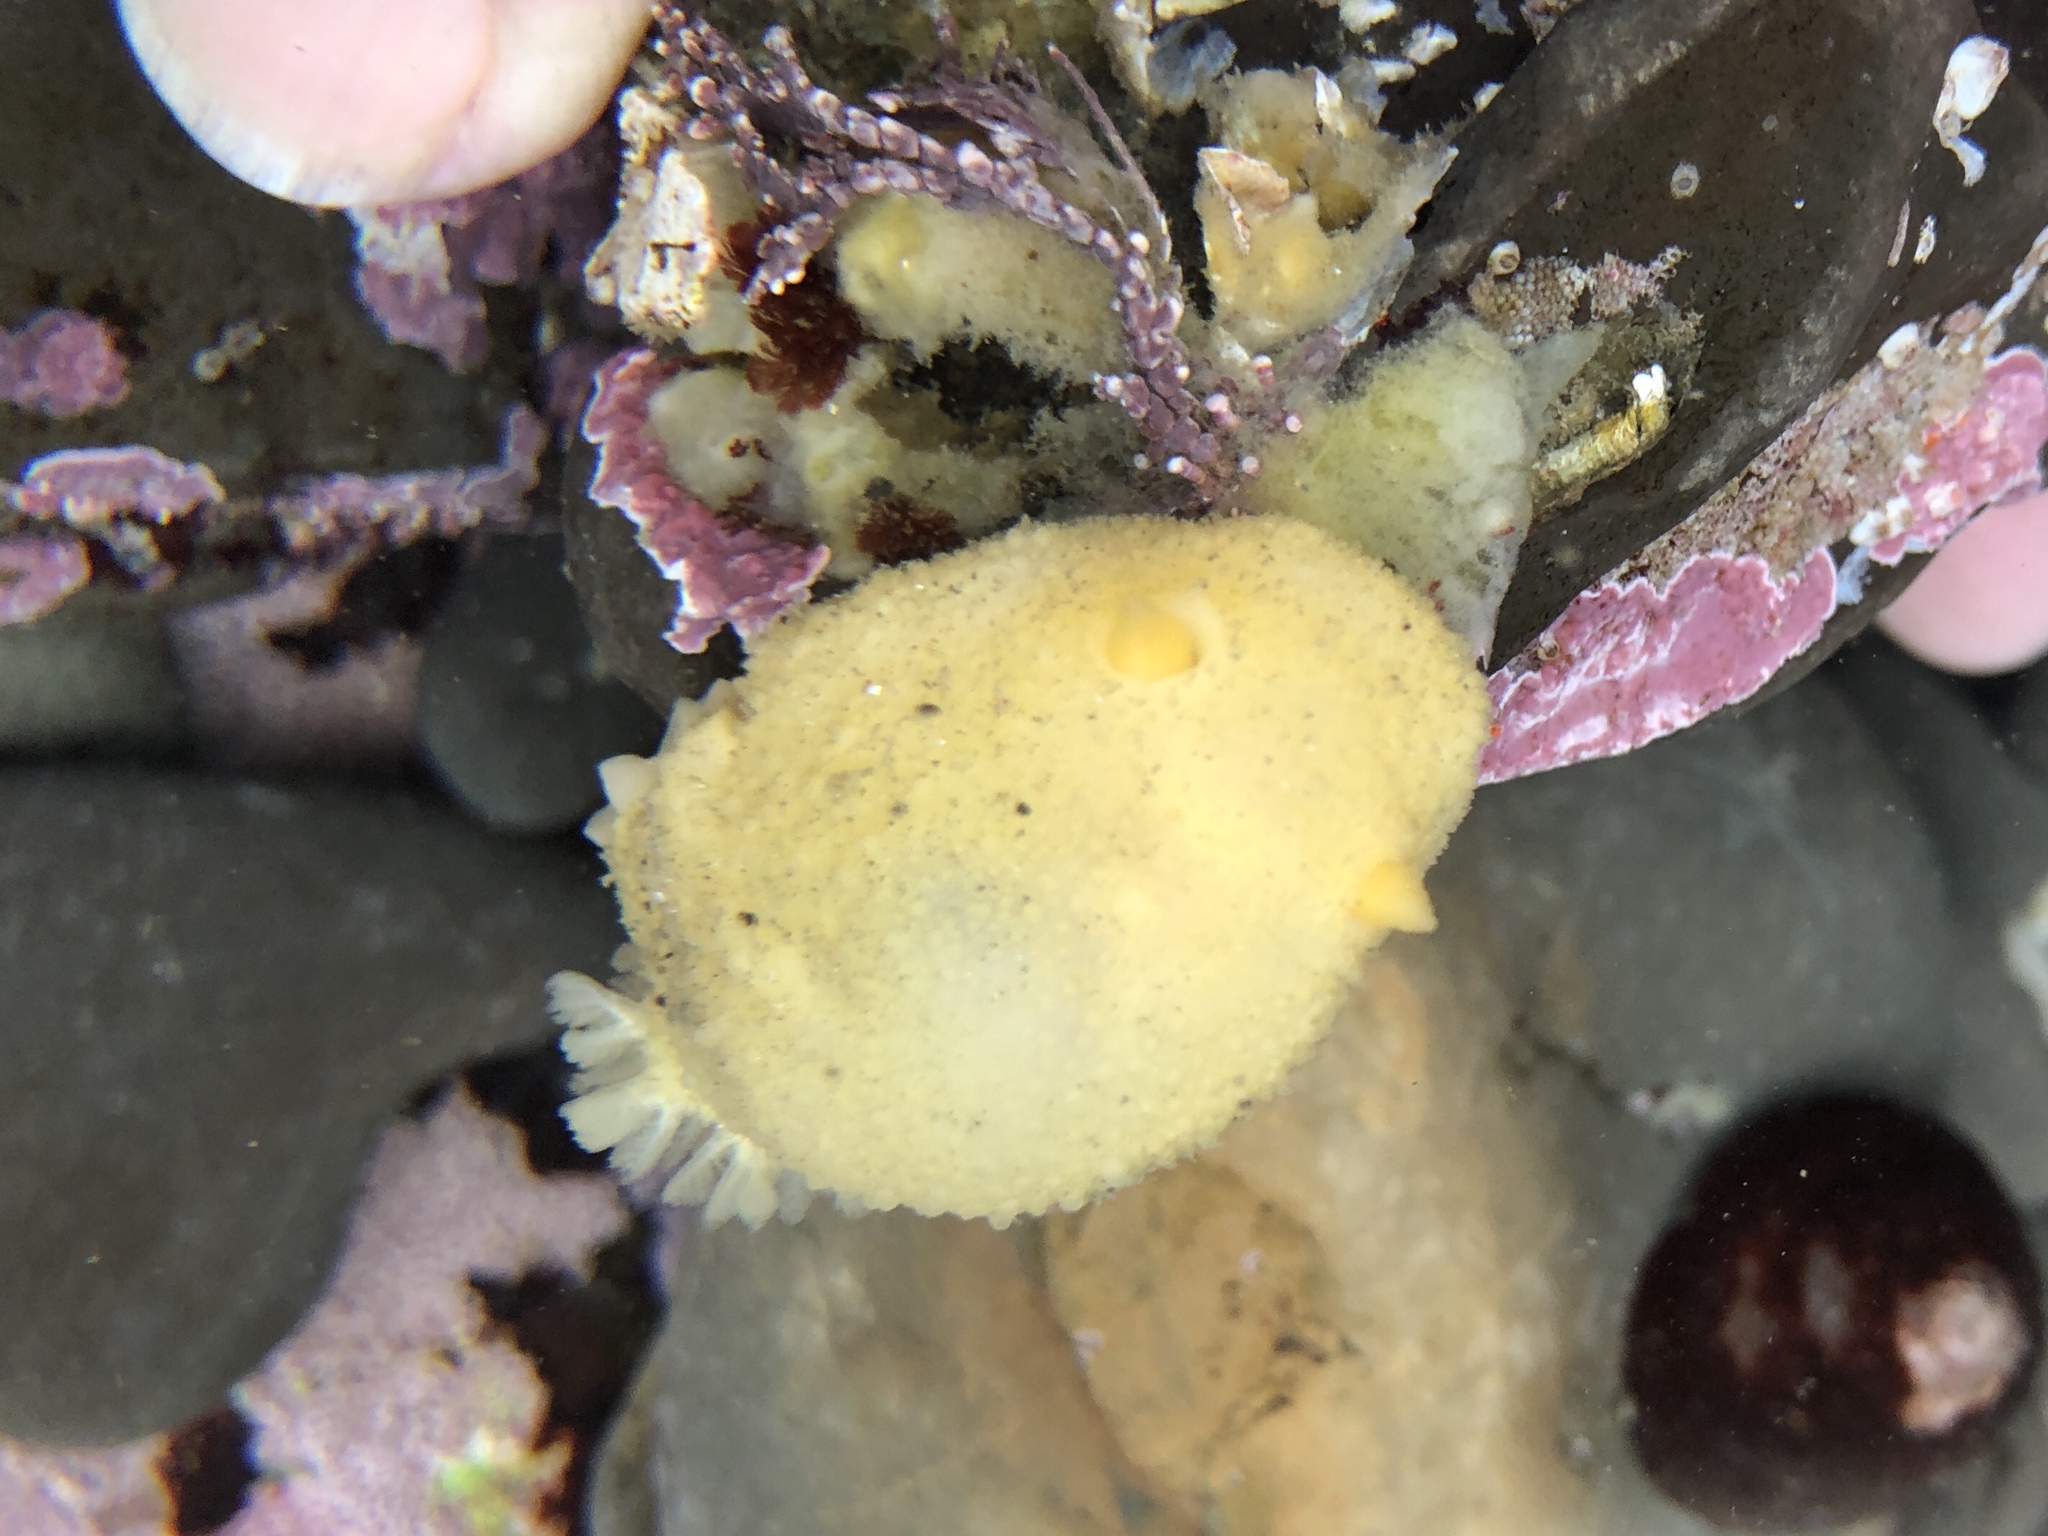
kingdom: Animalia
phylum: Mollusca
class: Gastropoda
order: Nudibranchia
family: Dorididae
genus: Doris
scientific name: Doris montereyensis
